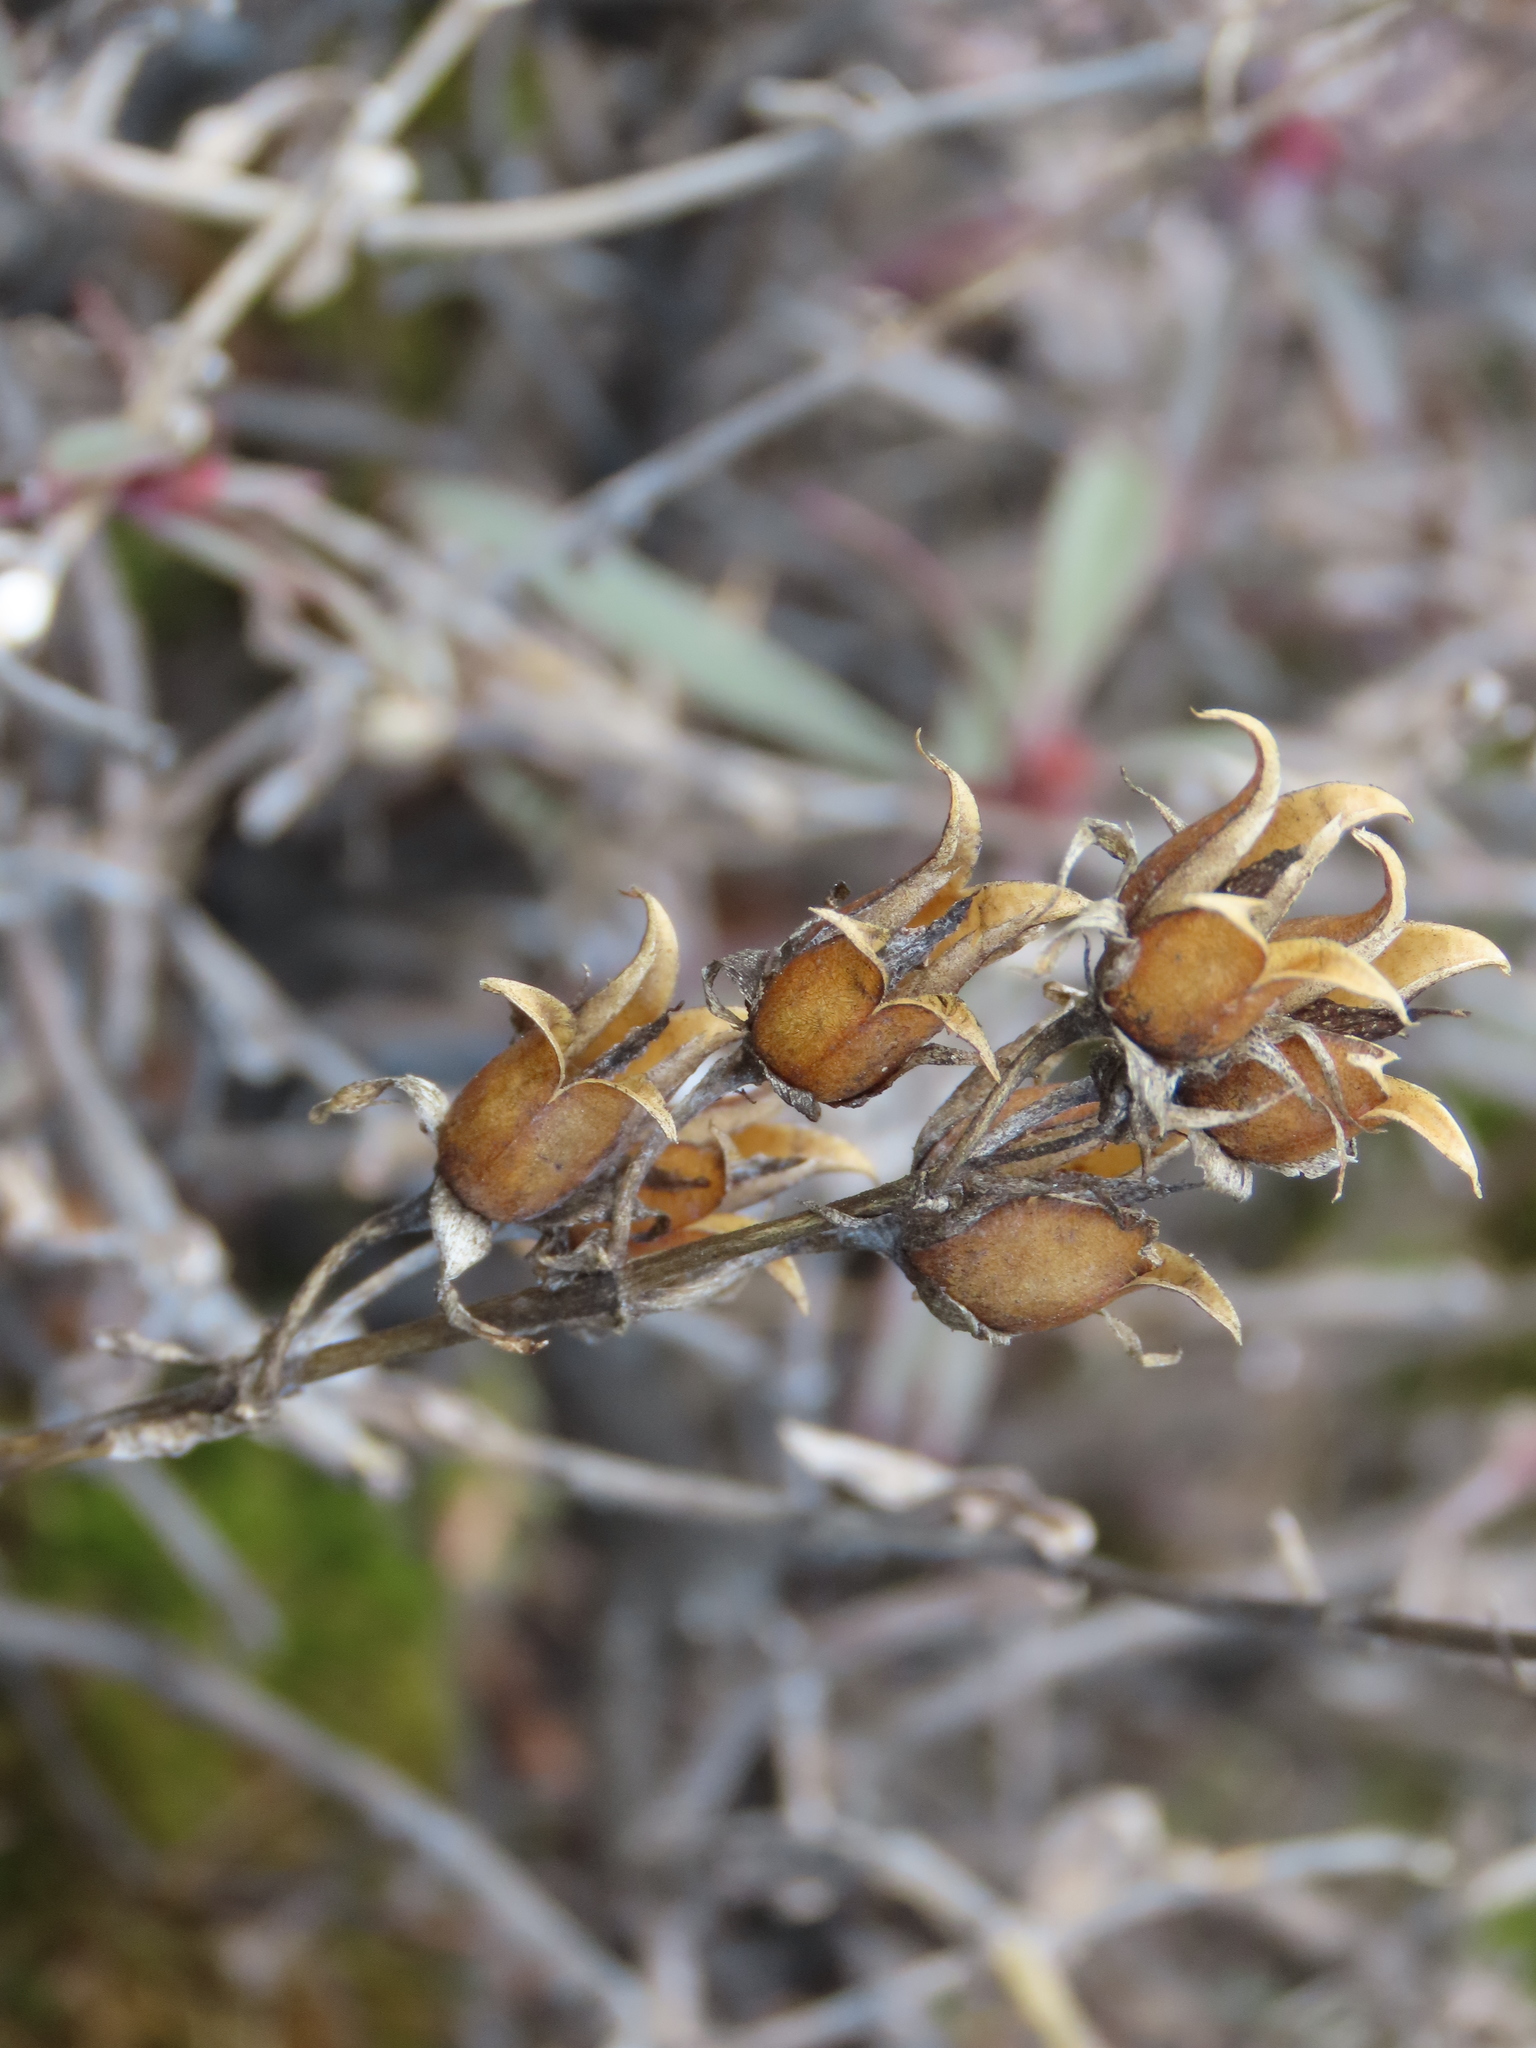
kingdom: Plantae
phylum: Tracheophyta
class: Magnoliopsida
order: Lamiales
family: Plantaginaceae
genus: Penstemon
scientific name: Penstemon fruticosus
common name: Bush penstemon
